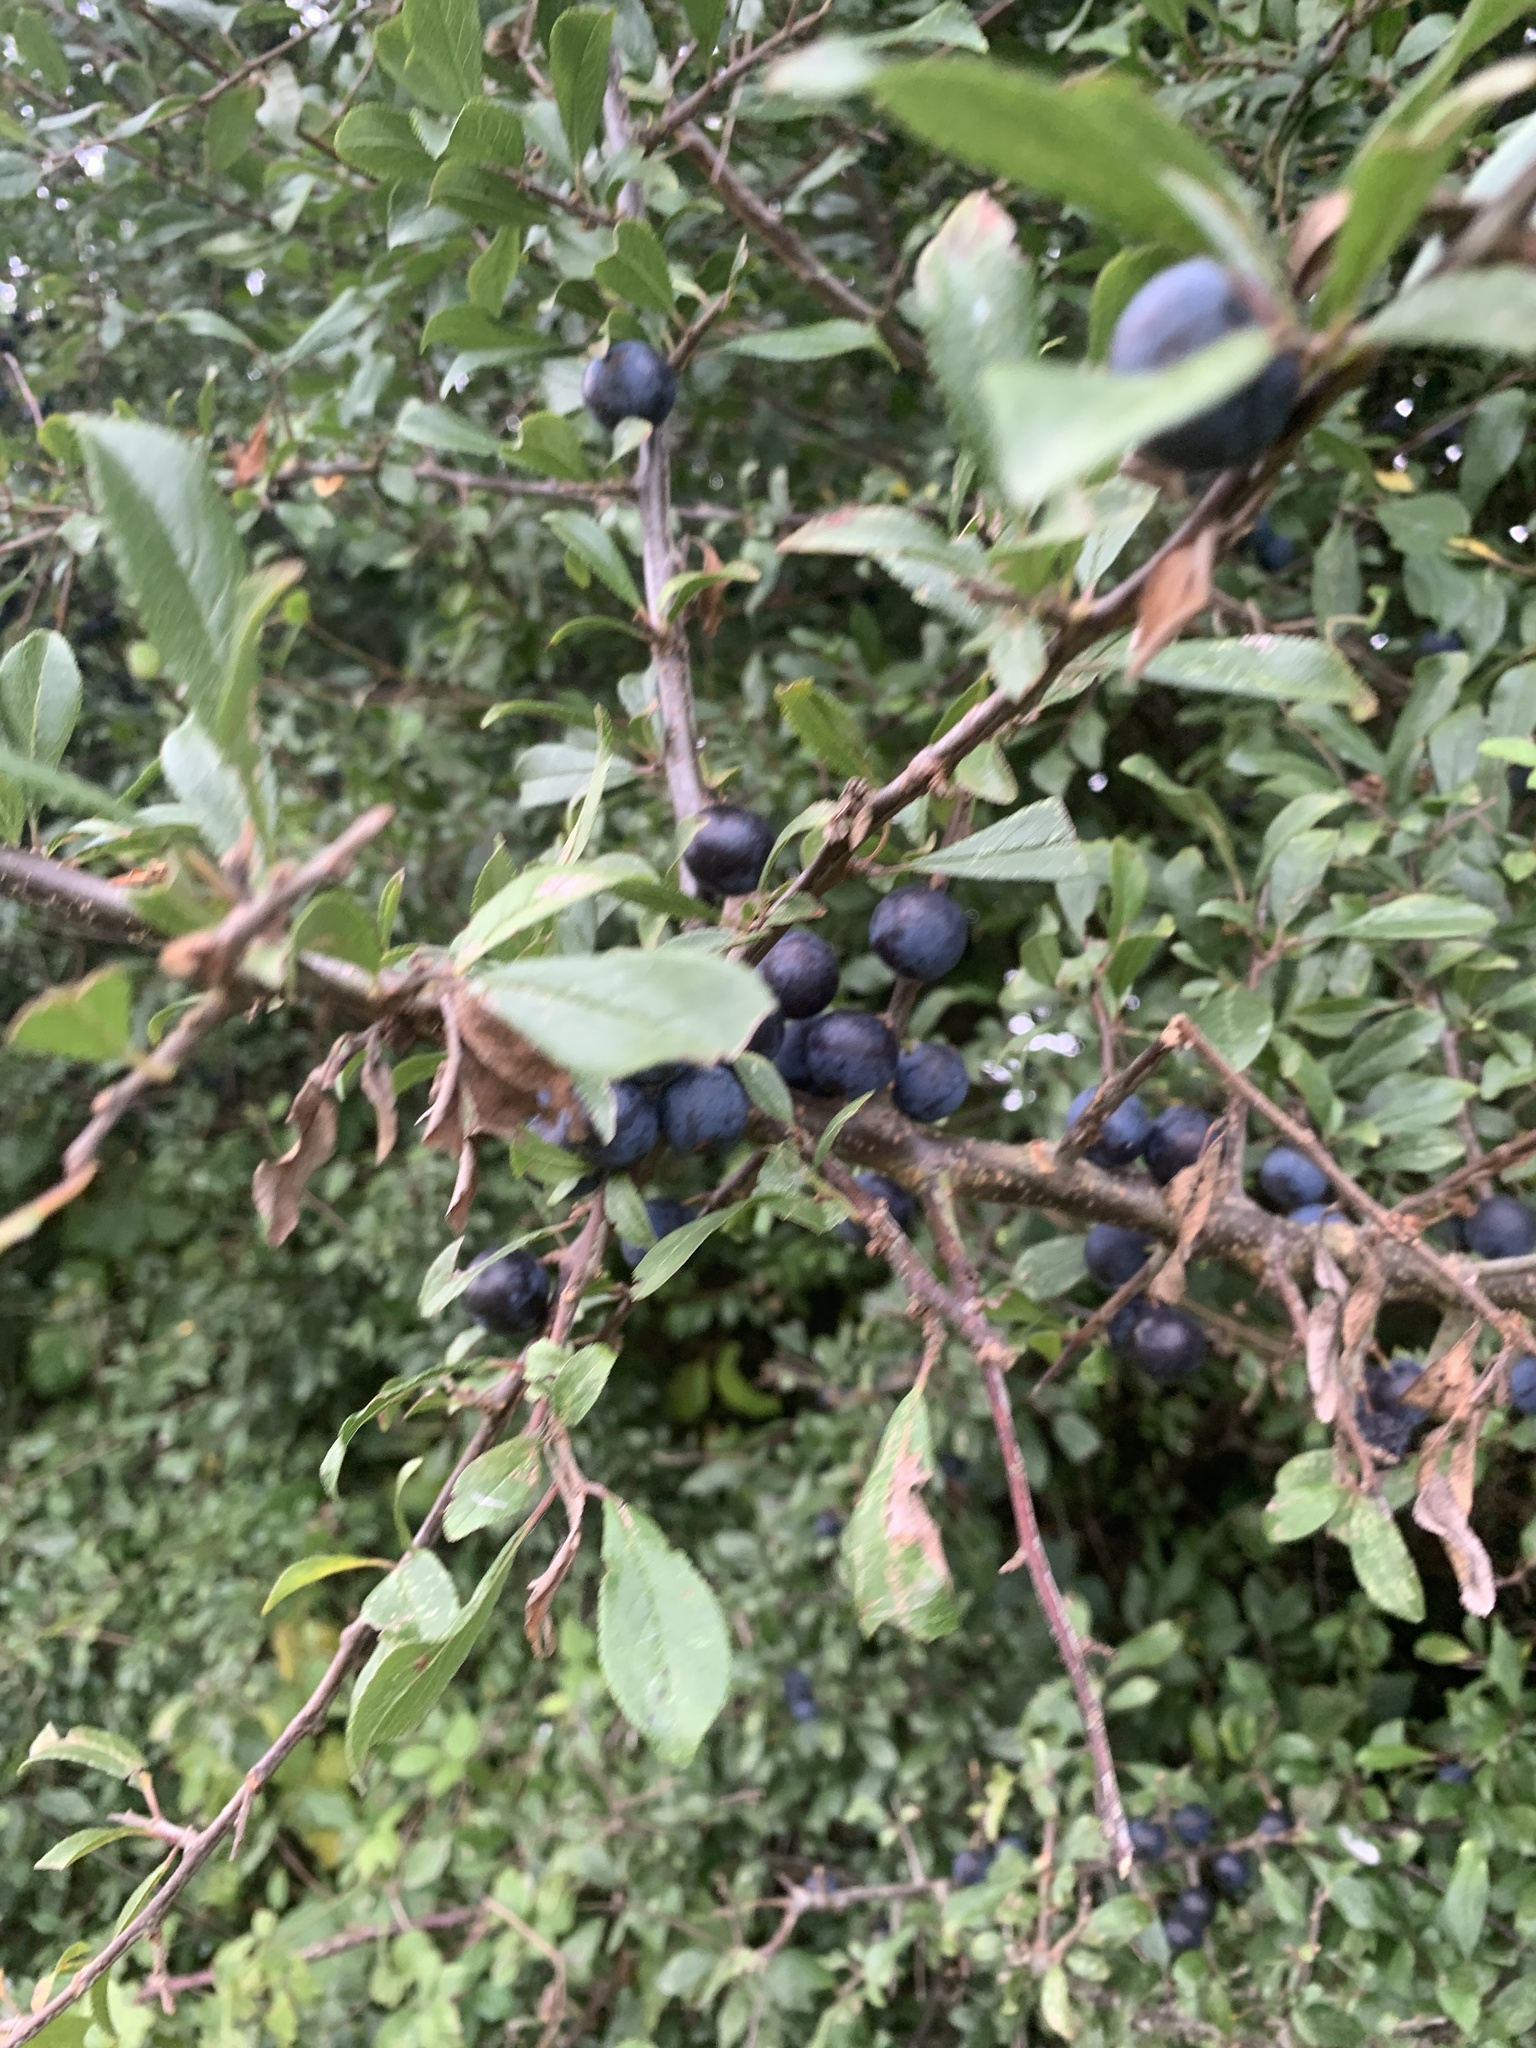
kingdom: Plantae
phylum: Tracheophyta
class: Magnoliopsida
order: Rosales
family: Rosaceae
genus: Prunus
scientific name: Prunus spinosa
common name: Blackthorn
